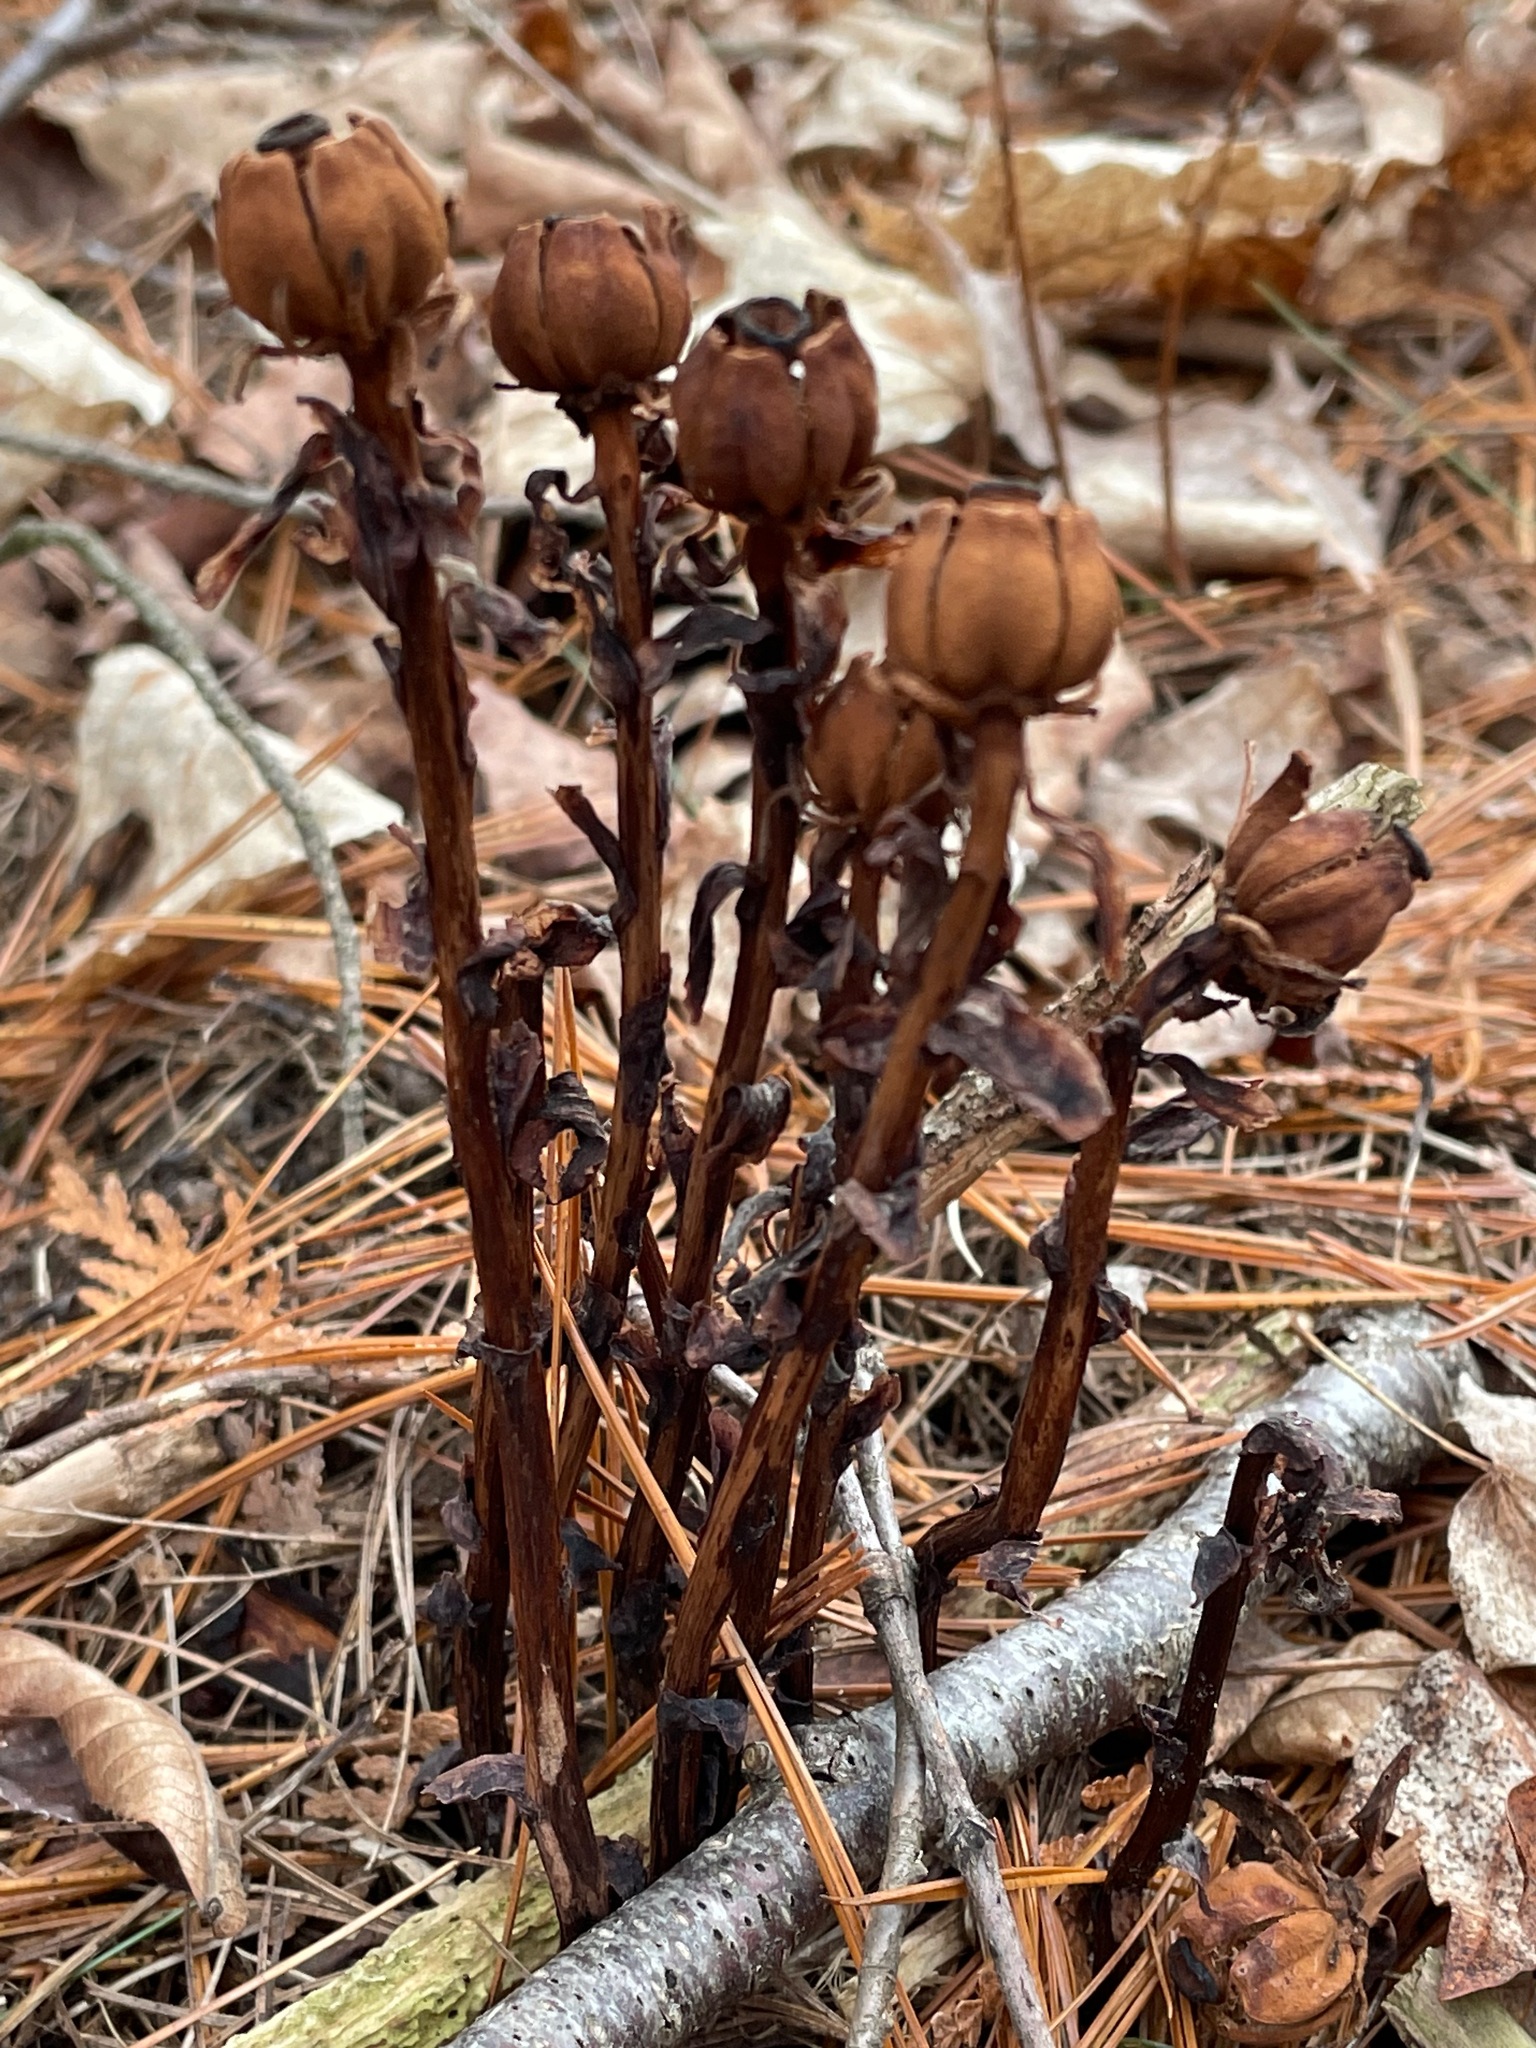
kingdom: Plantae
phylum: Tracheophyta
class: Magnoliopsida
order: Ericales
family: Ericaceae
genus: Monotropa
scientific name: Monotropa uniflora
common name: Convulsion root
